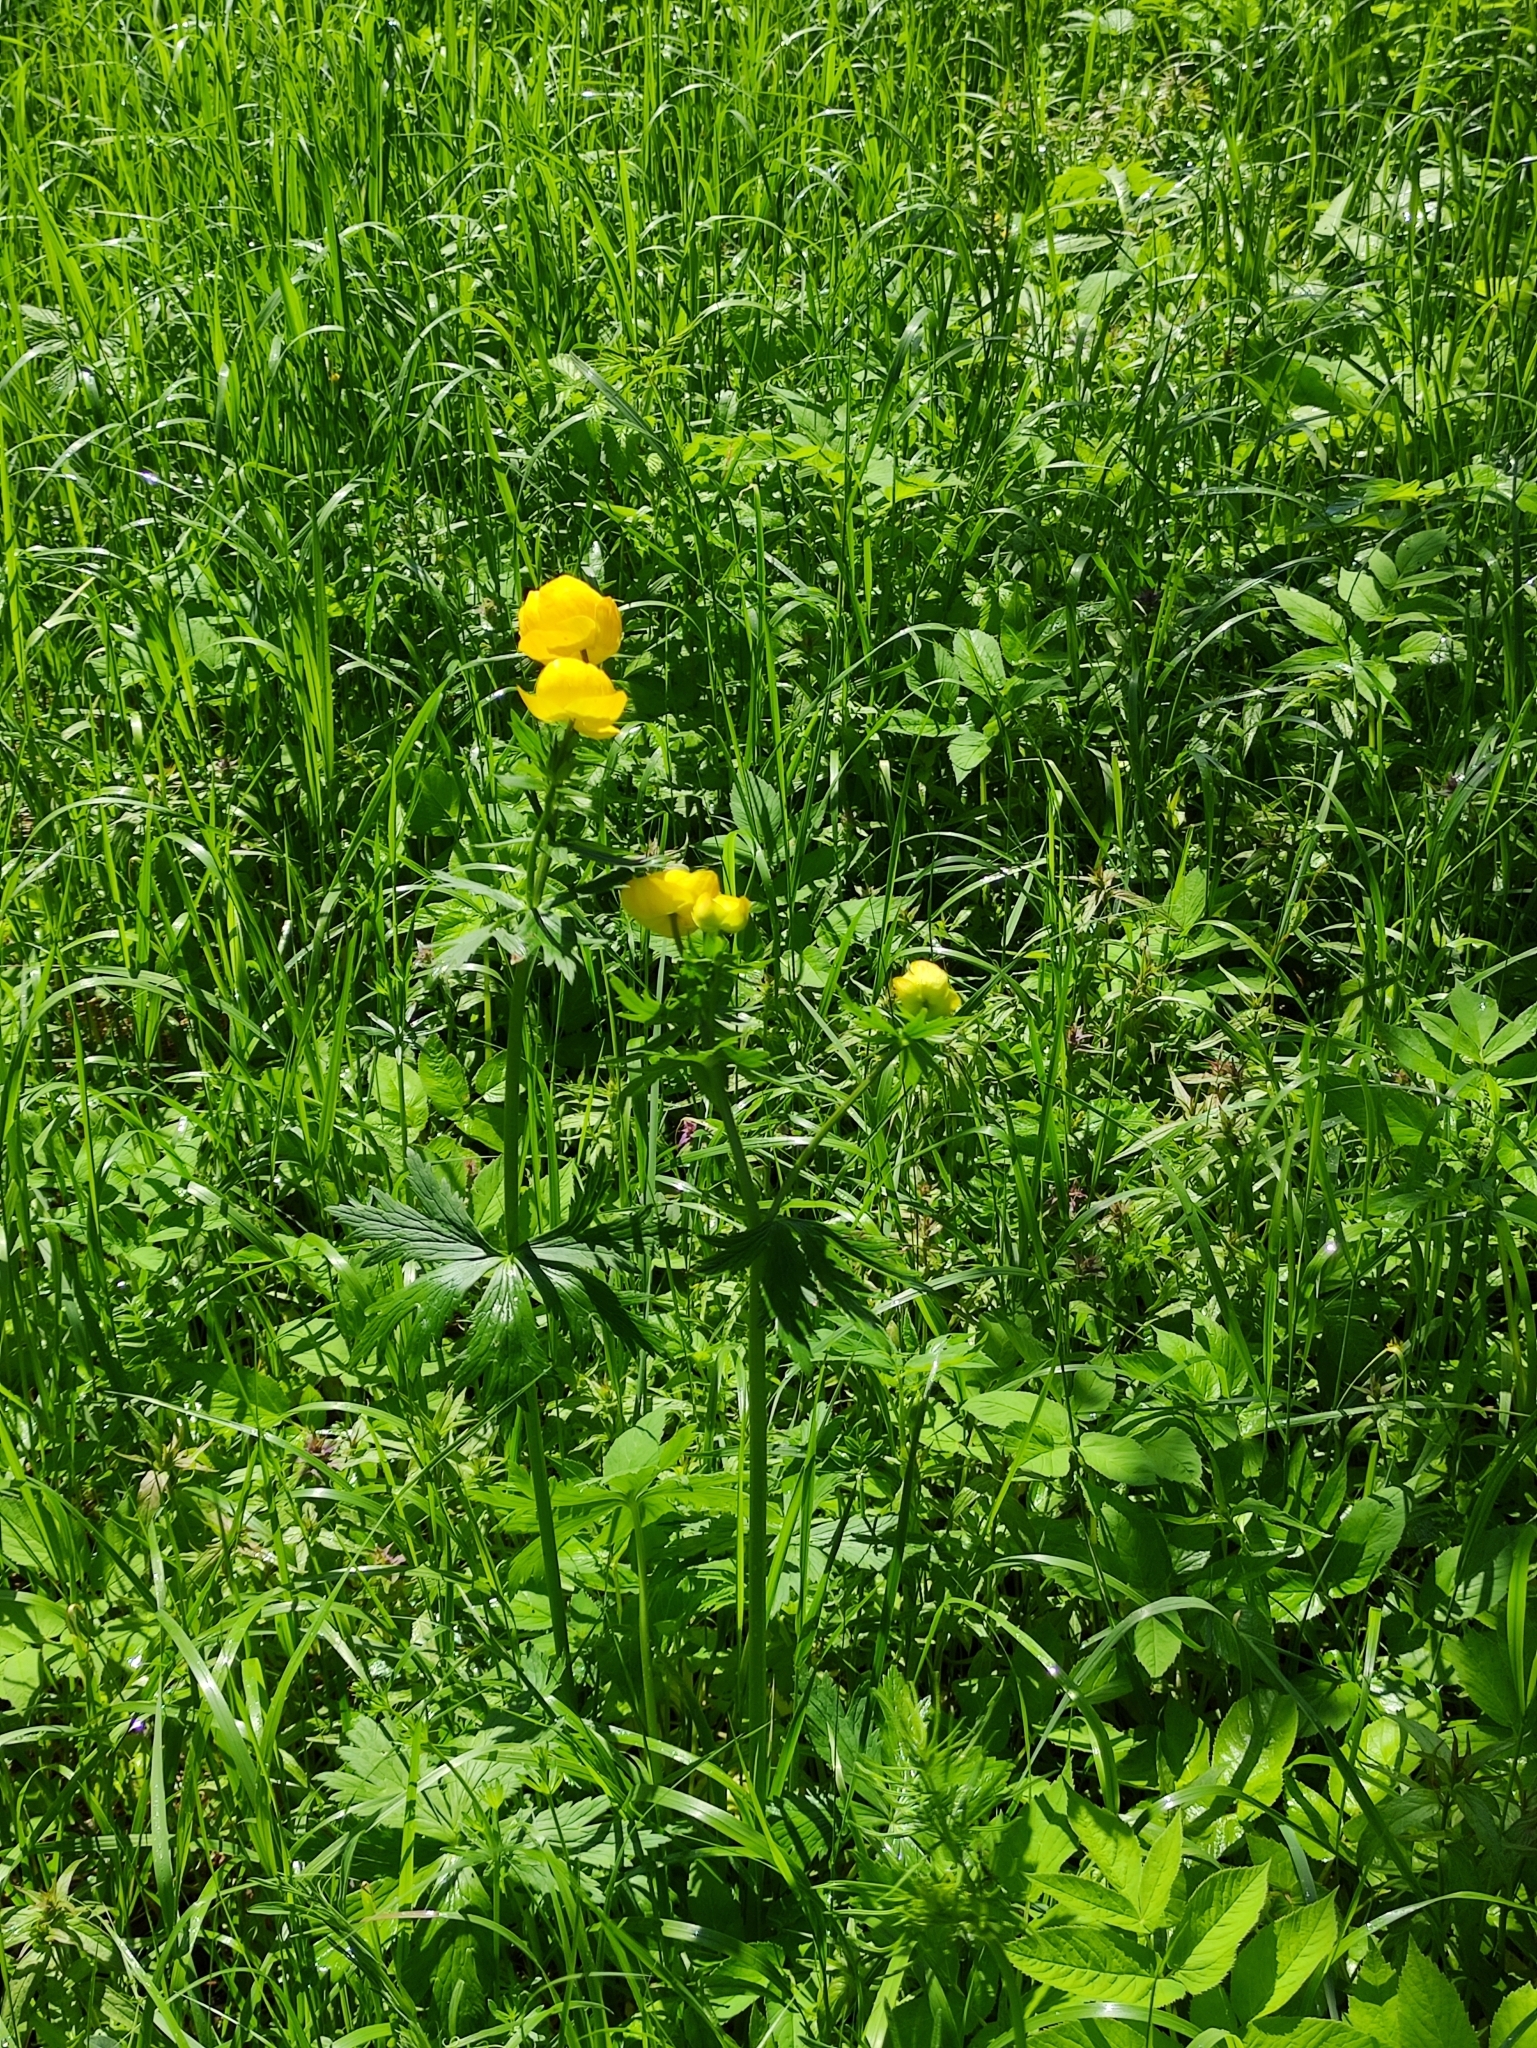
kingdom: Plantae
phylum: Tracheophyta
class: Magnoliopsida
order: Ranunculales
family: Ranunculaceae
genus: Trollius
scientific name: Trollius europaeus
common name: European globeflower
